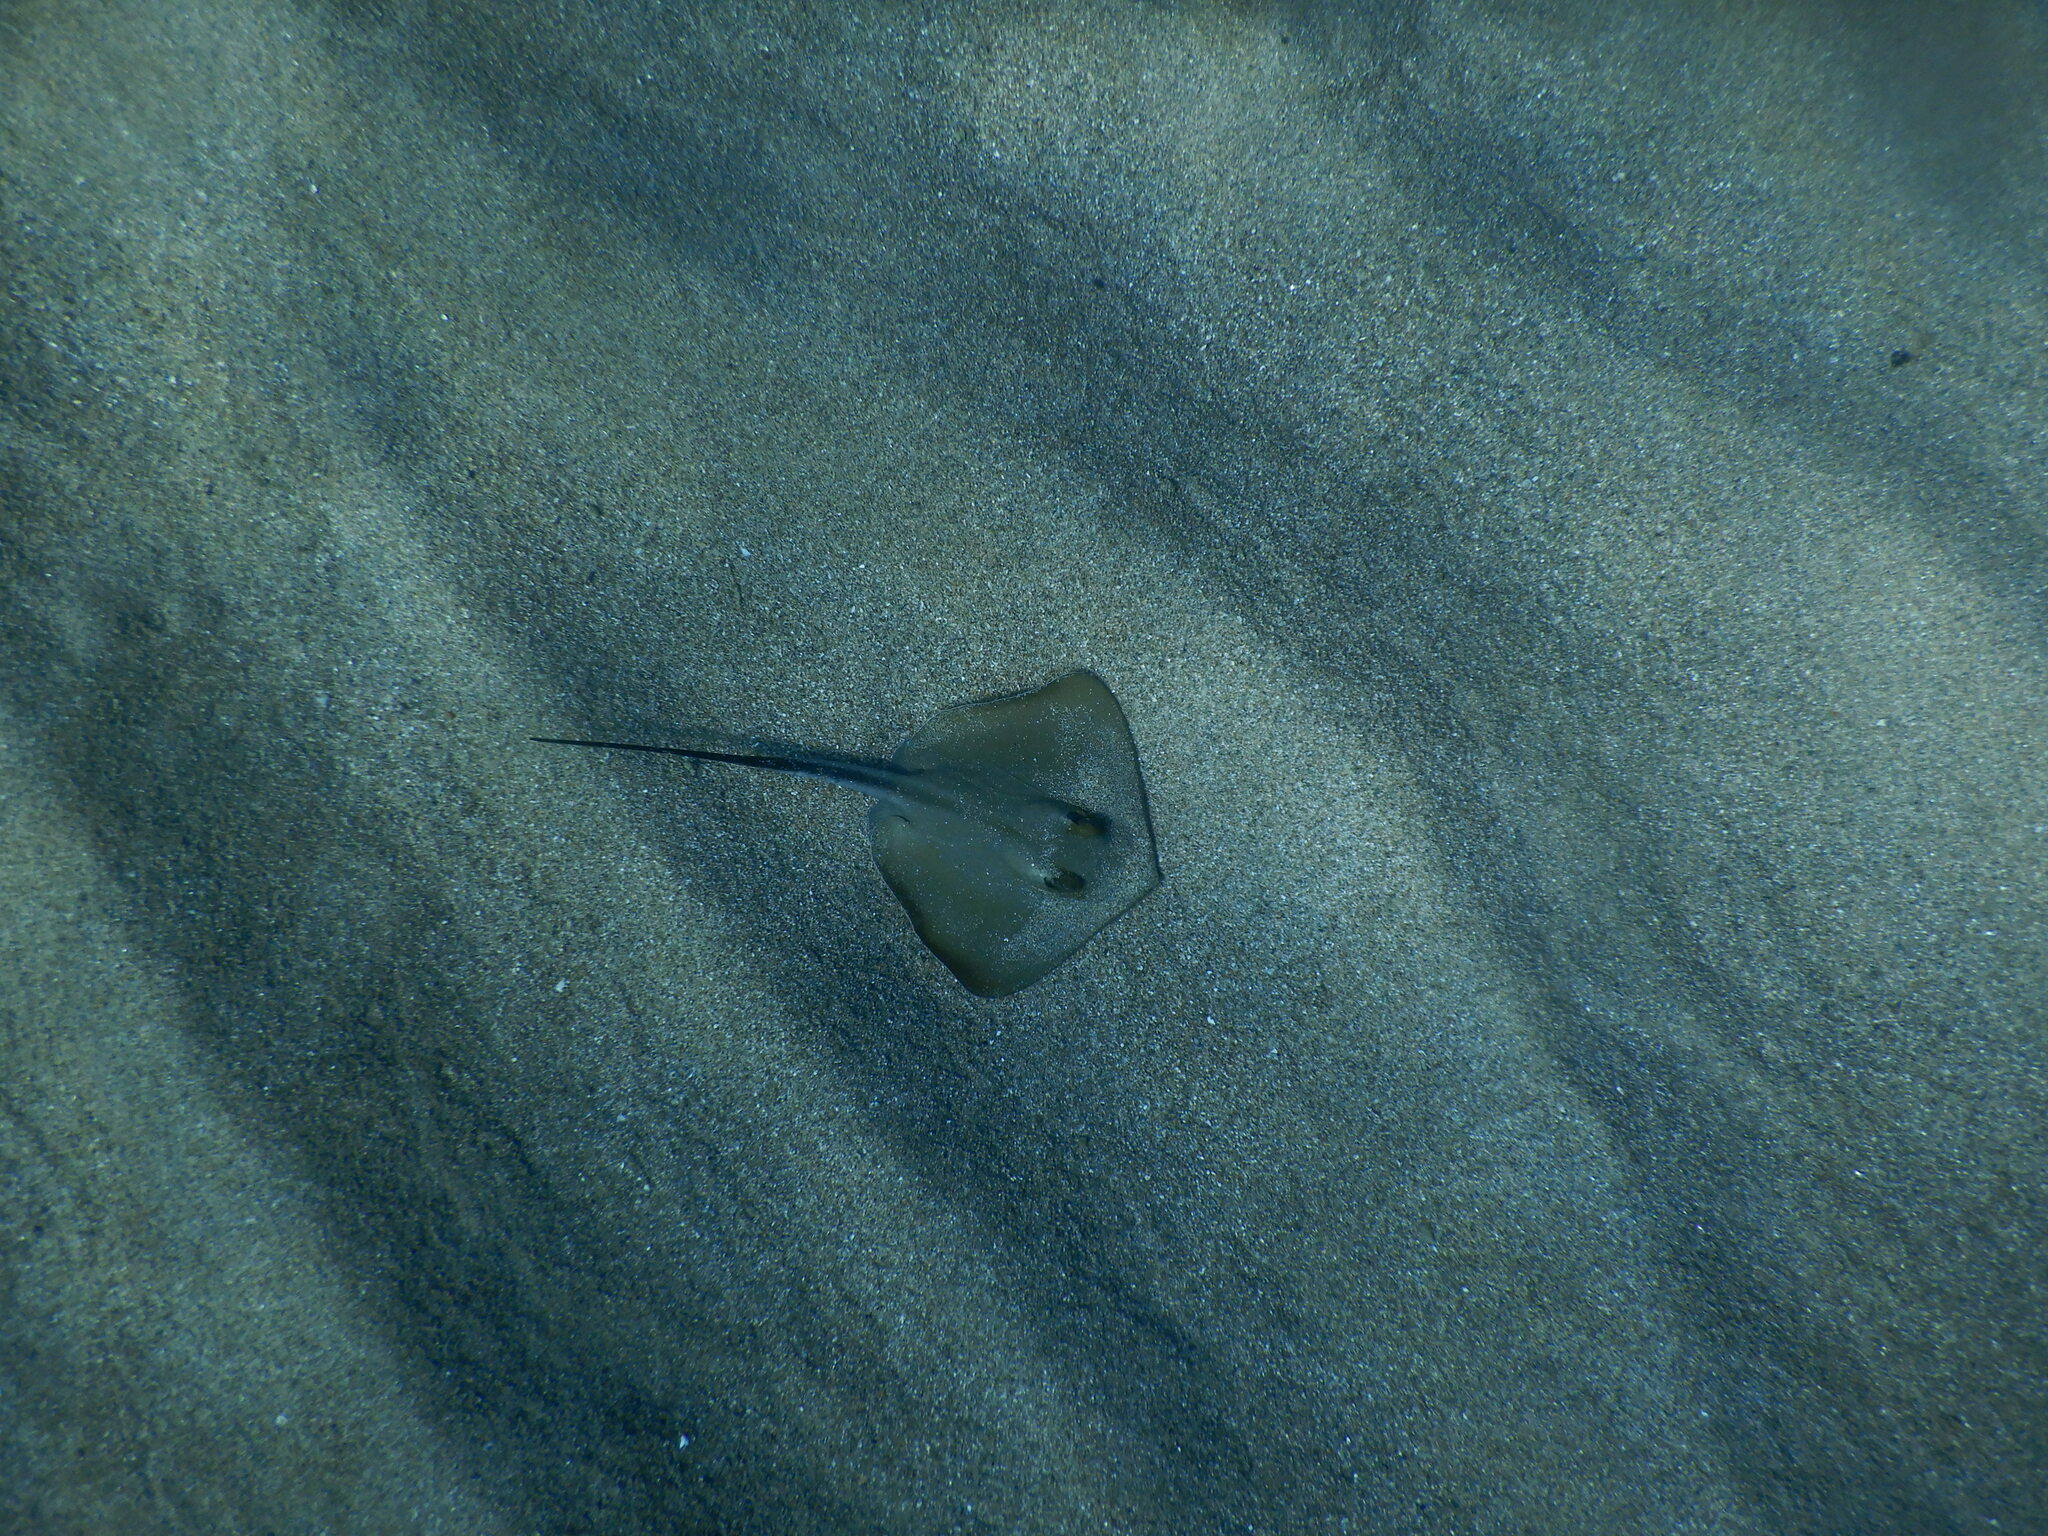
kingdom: Animalia
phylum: Chordata
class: Elasmobranchii
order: Myliobatiformes
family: Dasyatidae
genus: Dasyatis
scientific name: Dasyatis pastinaca
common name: Common stingray
